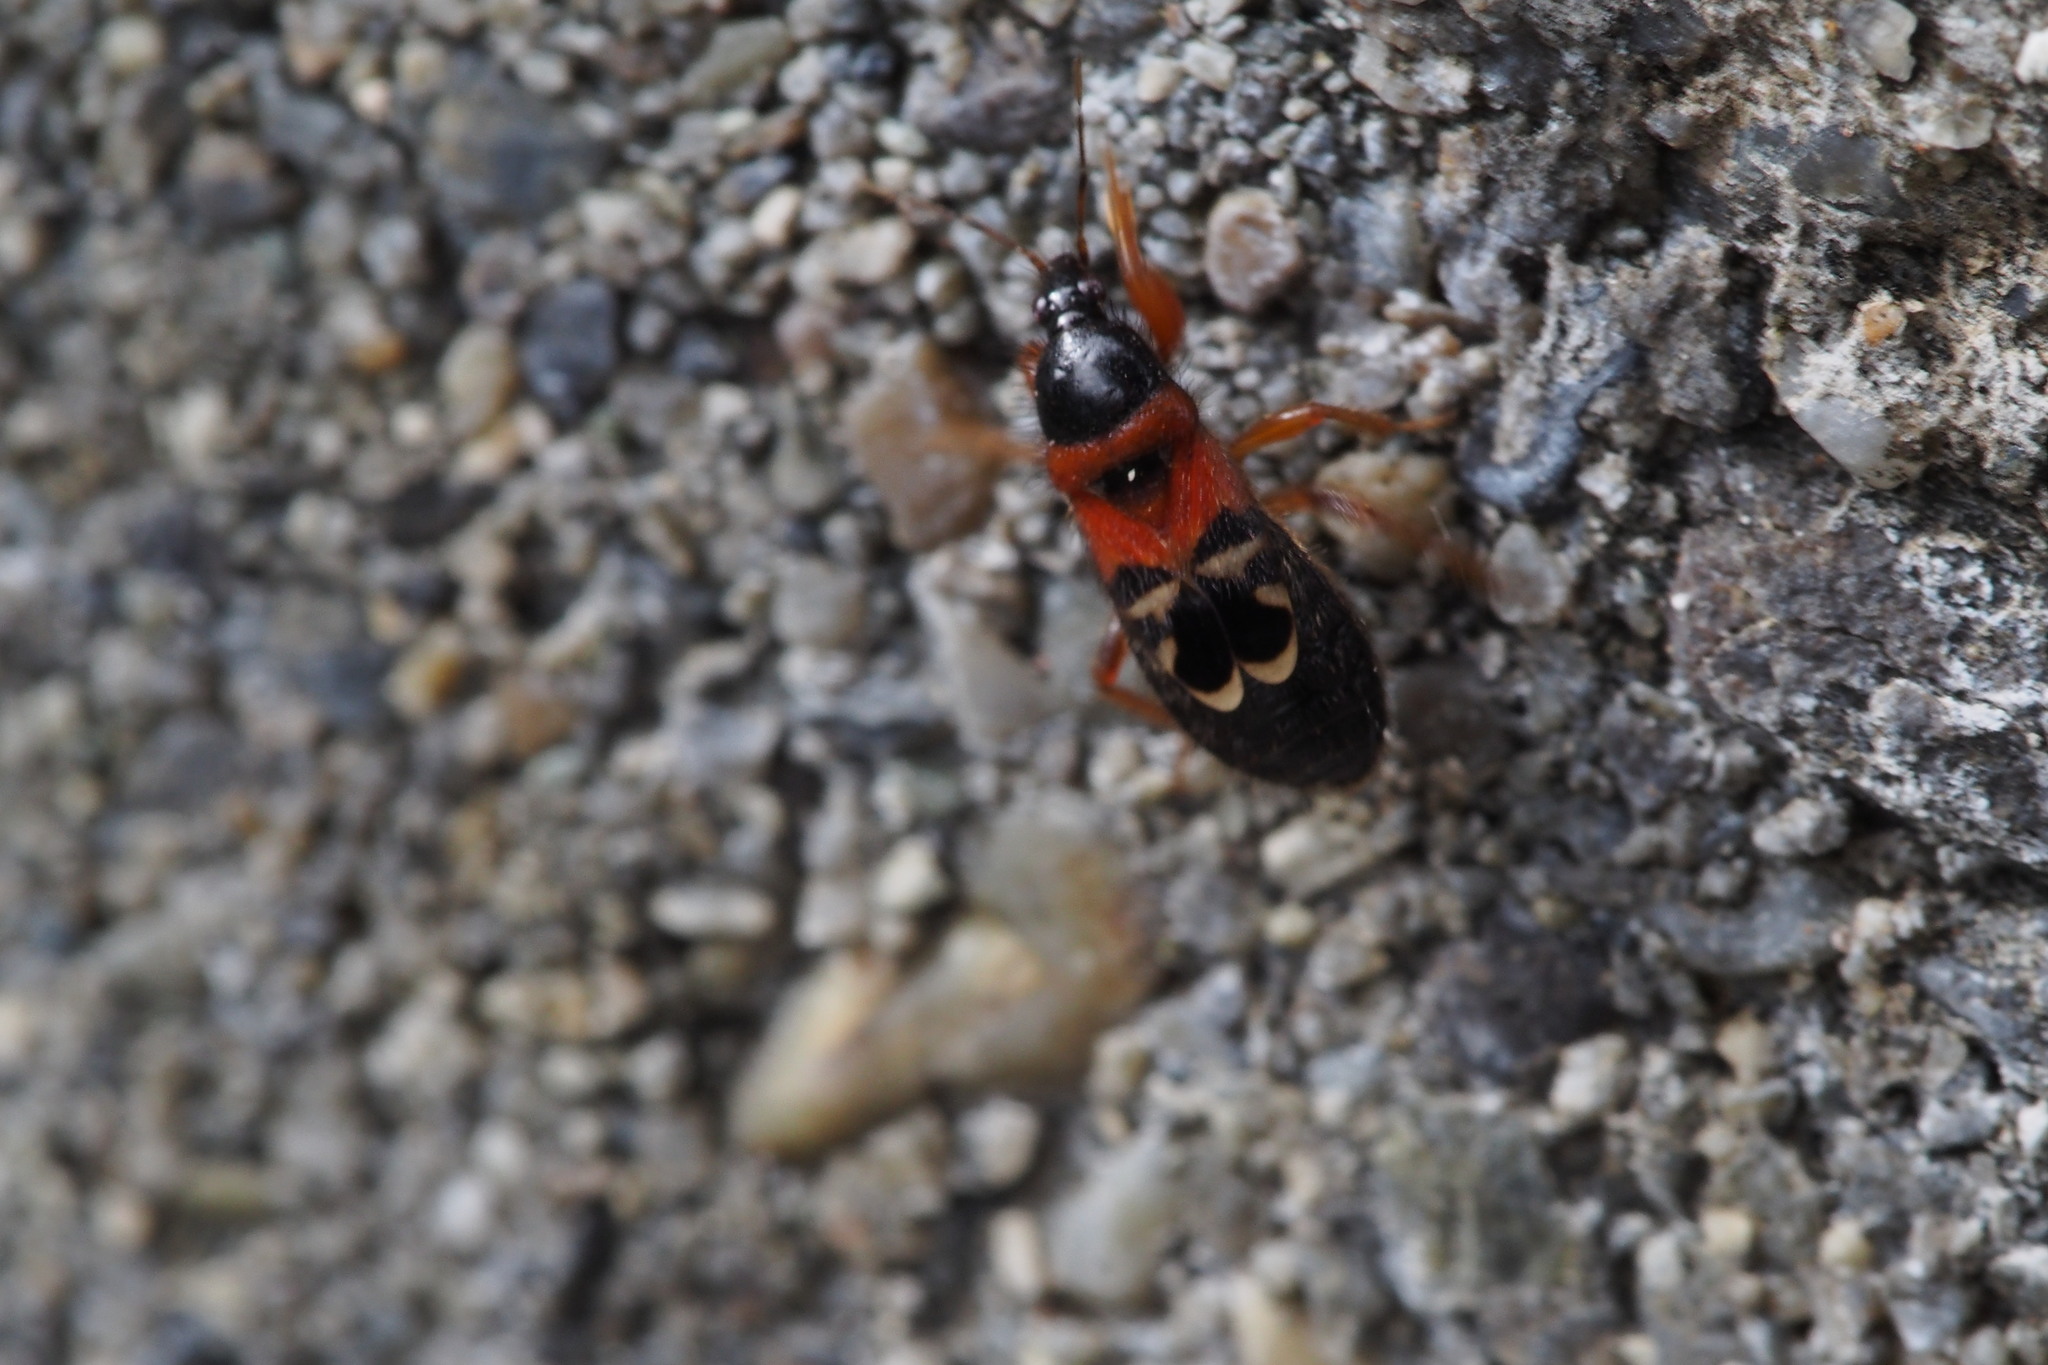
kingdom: Animalia
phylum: Arthropoda
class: Insecta
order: Hemiptera
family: Nabidae
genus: Prostemma
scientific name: Prostemma
